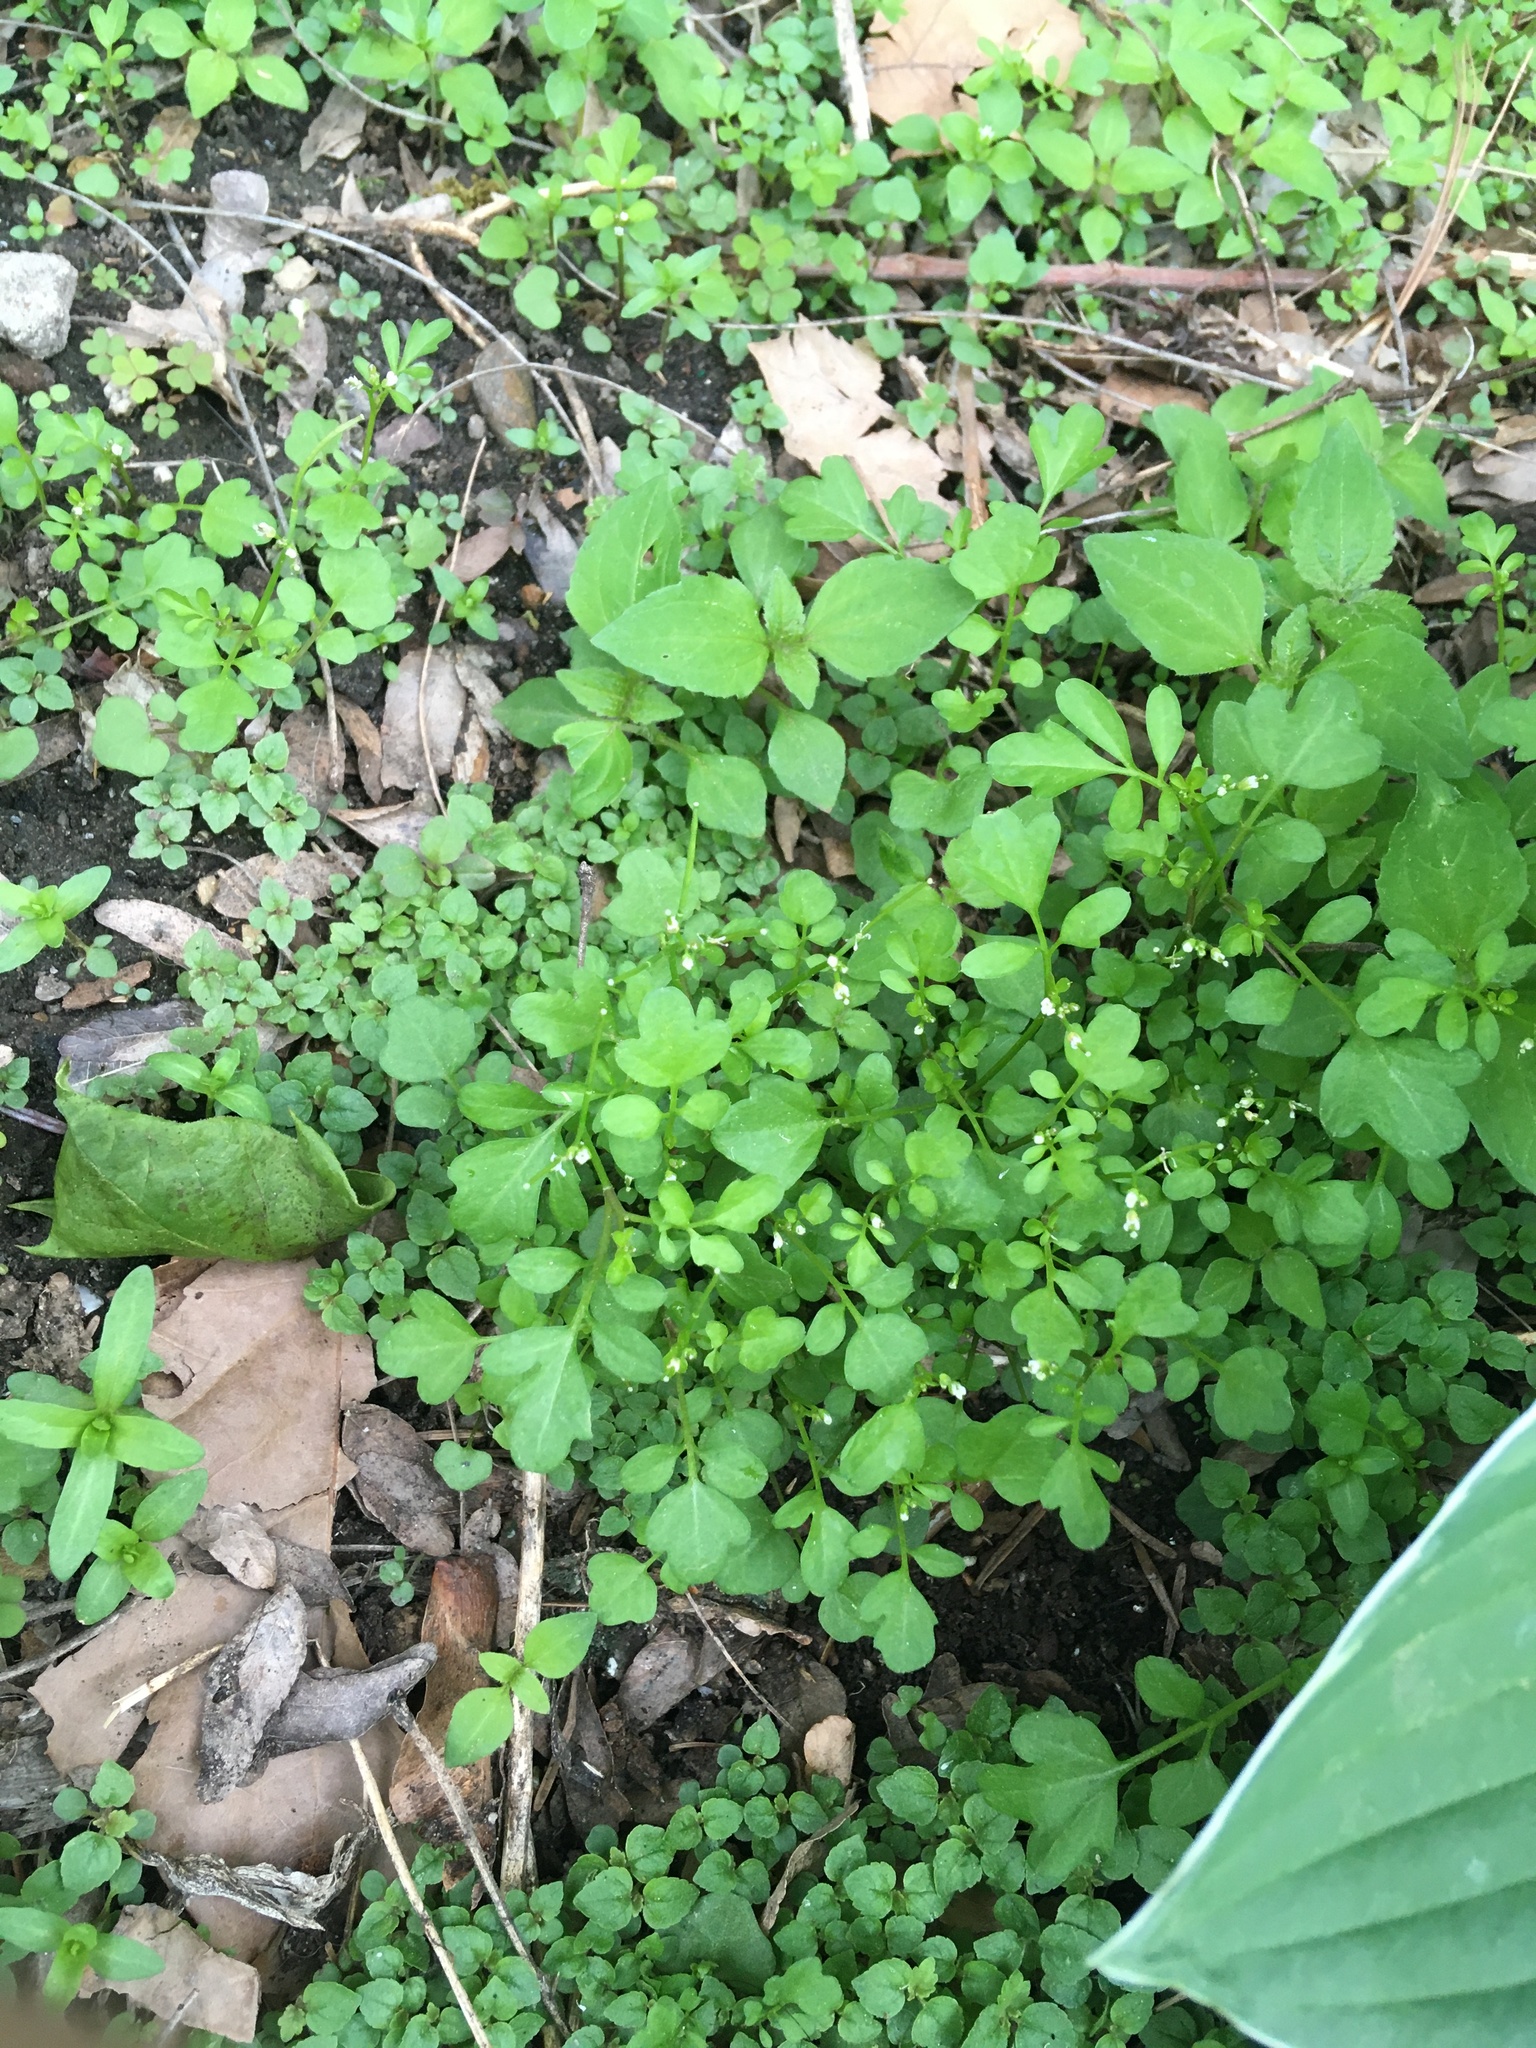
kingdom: Plantae
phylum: Tracheophyta
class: Magnoliopsida
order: Brassicales
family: Brassicaceae
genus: Cardamine
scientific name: Cardamine occulta
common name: Asian wavy bittercress
